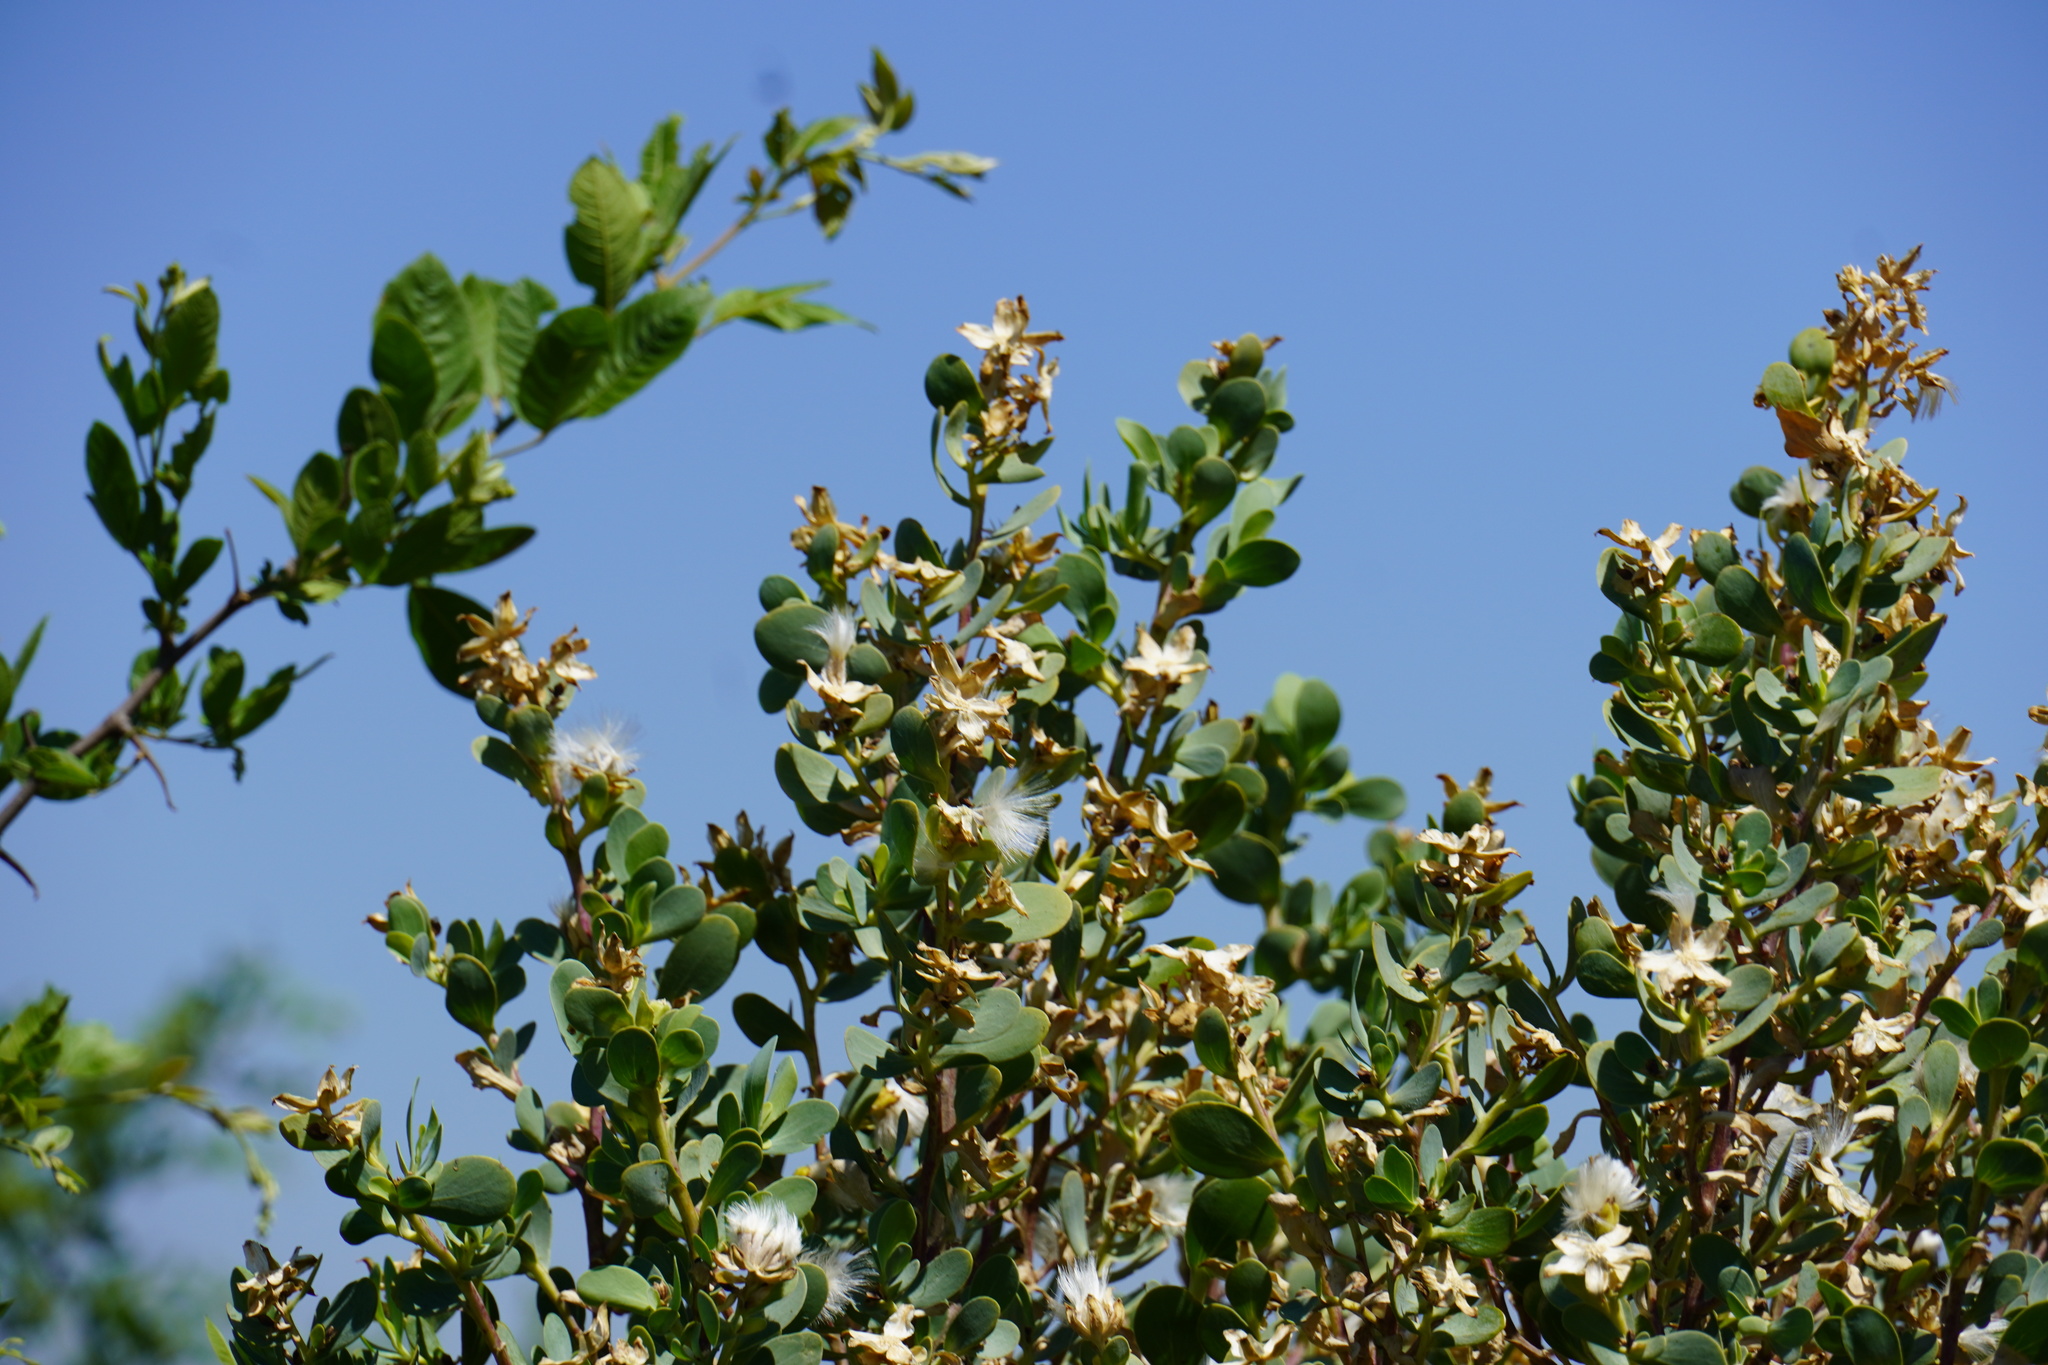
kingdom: Plantae
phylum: Tracheophyta
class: Magnoliopsida
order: Asterales
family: Asteraceae
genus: Lopholaena
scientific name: Lopholaena coriifolia
